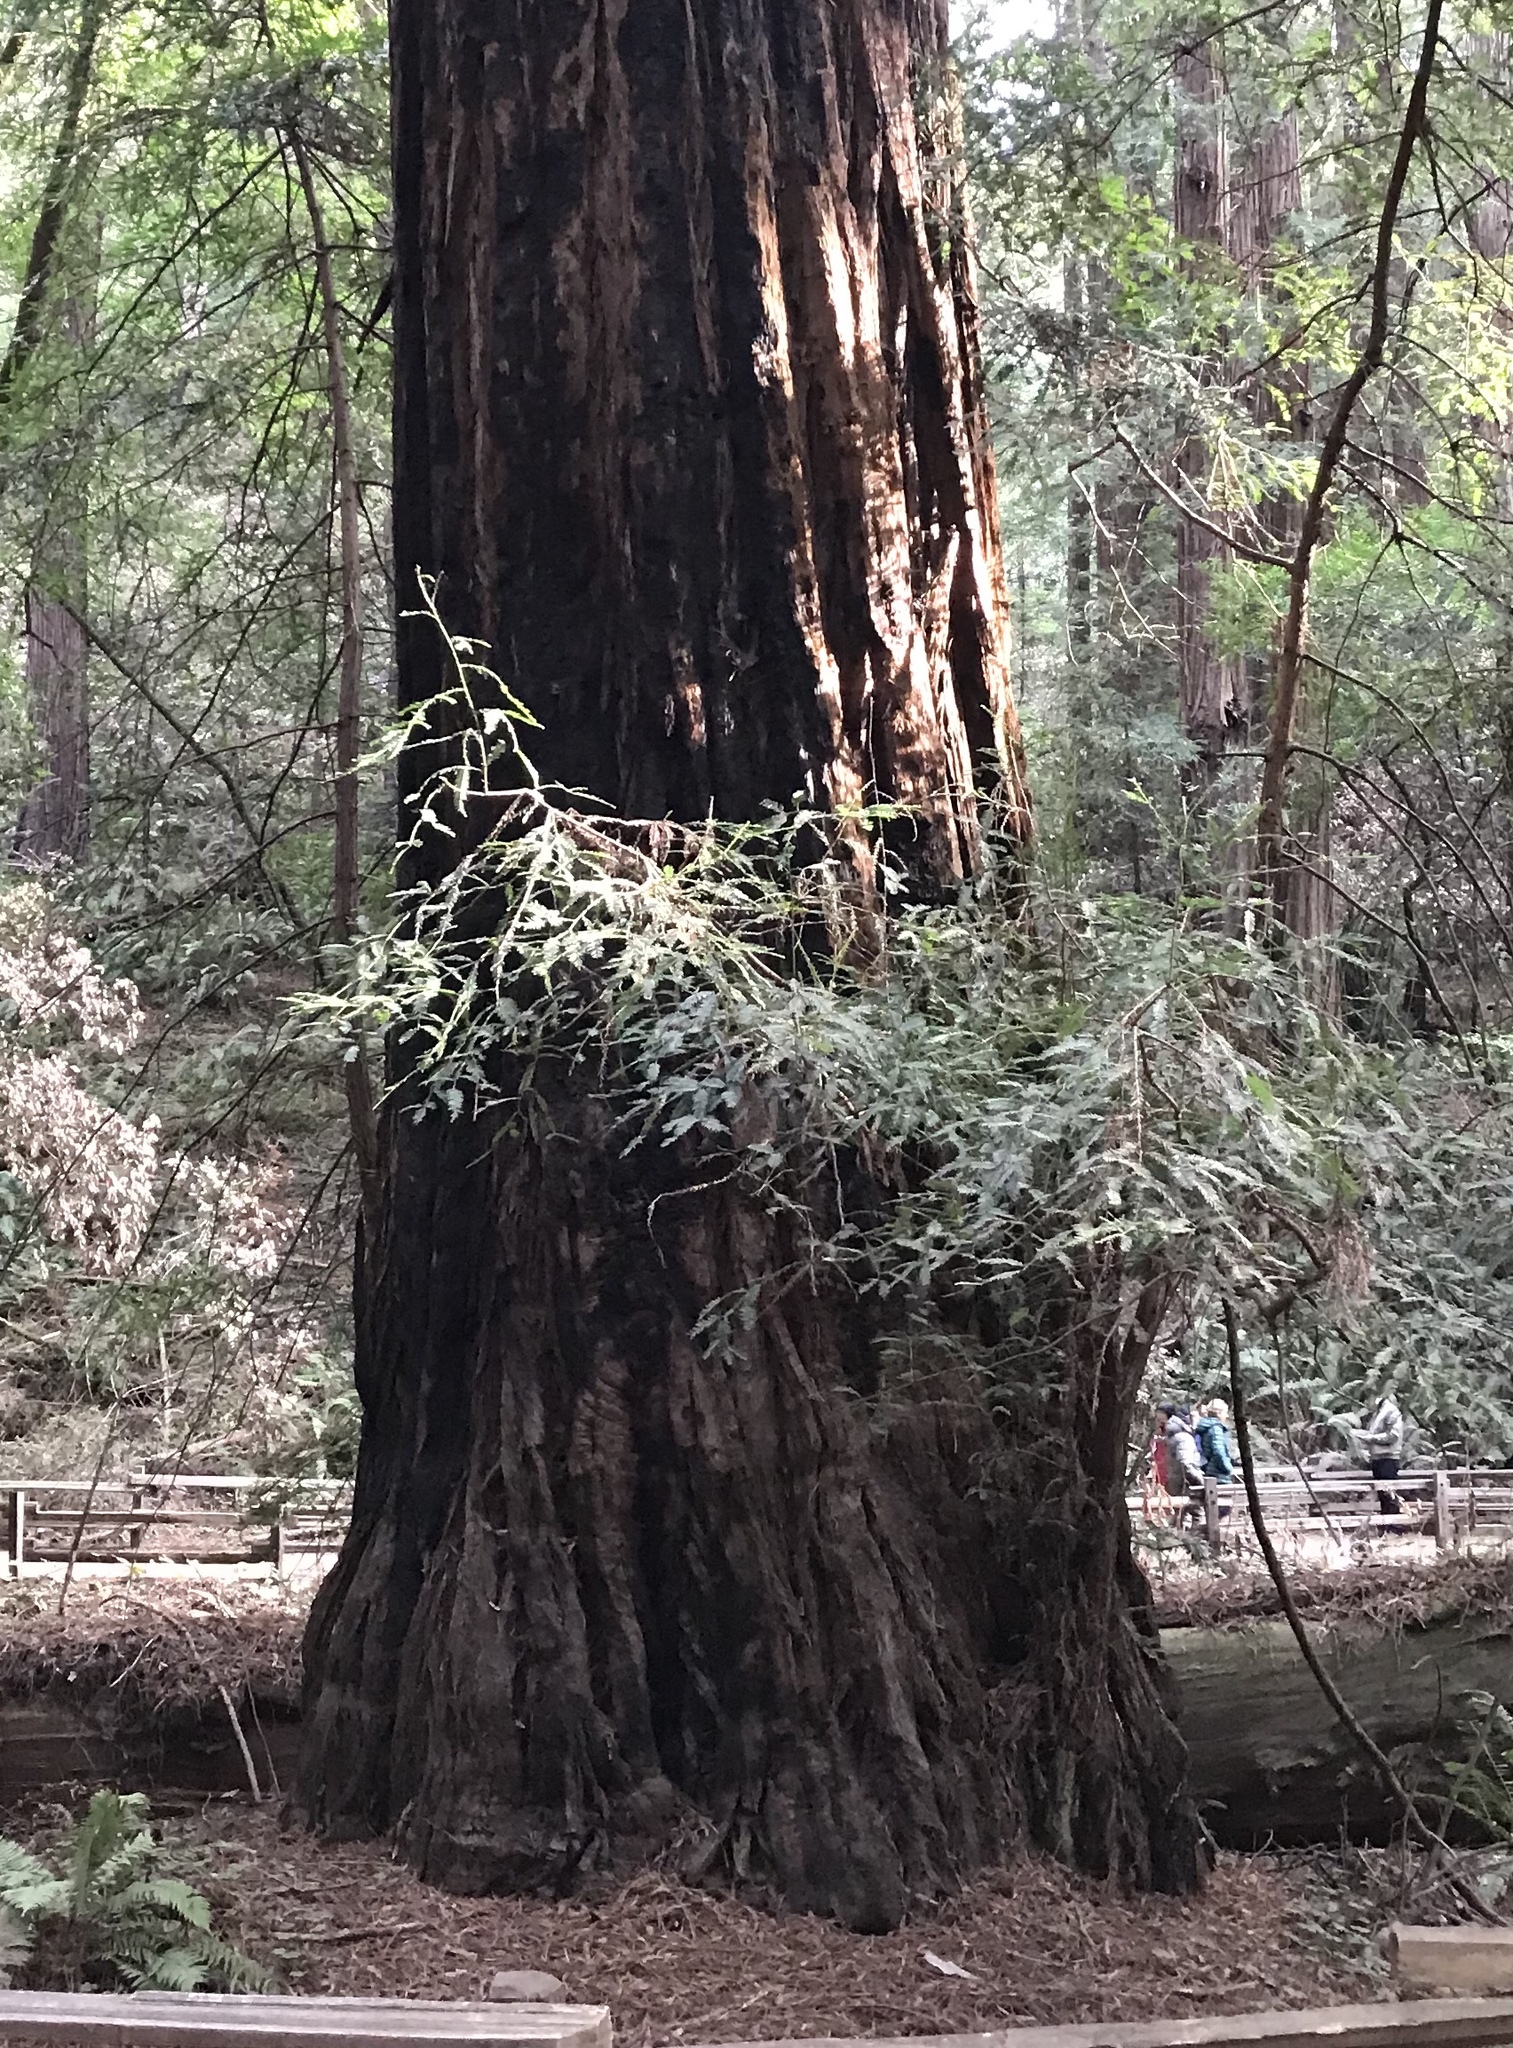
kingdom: Plantae
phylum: Tracheophyta
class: Pinopsida
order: Pinales
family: Cupressaceae
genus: Sequoia
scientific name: Sequoia sempervirens
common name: Coast redwood
